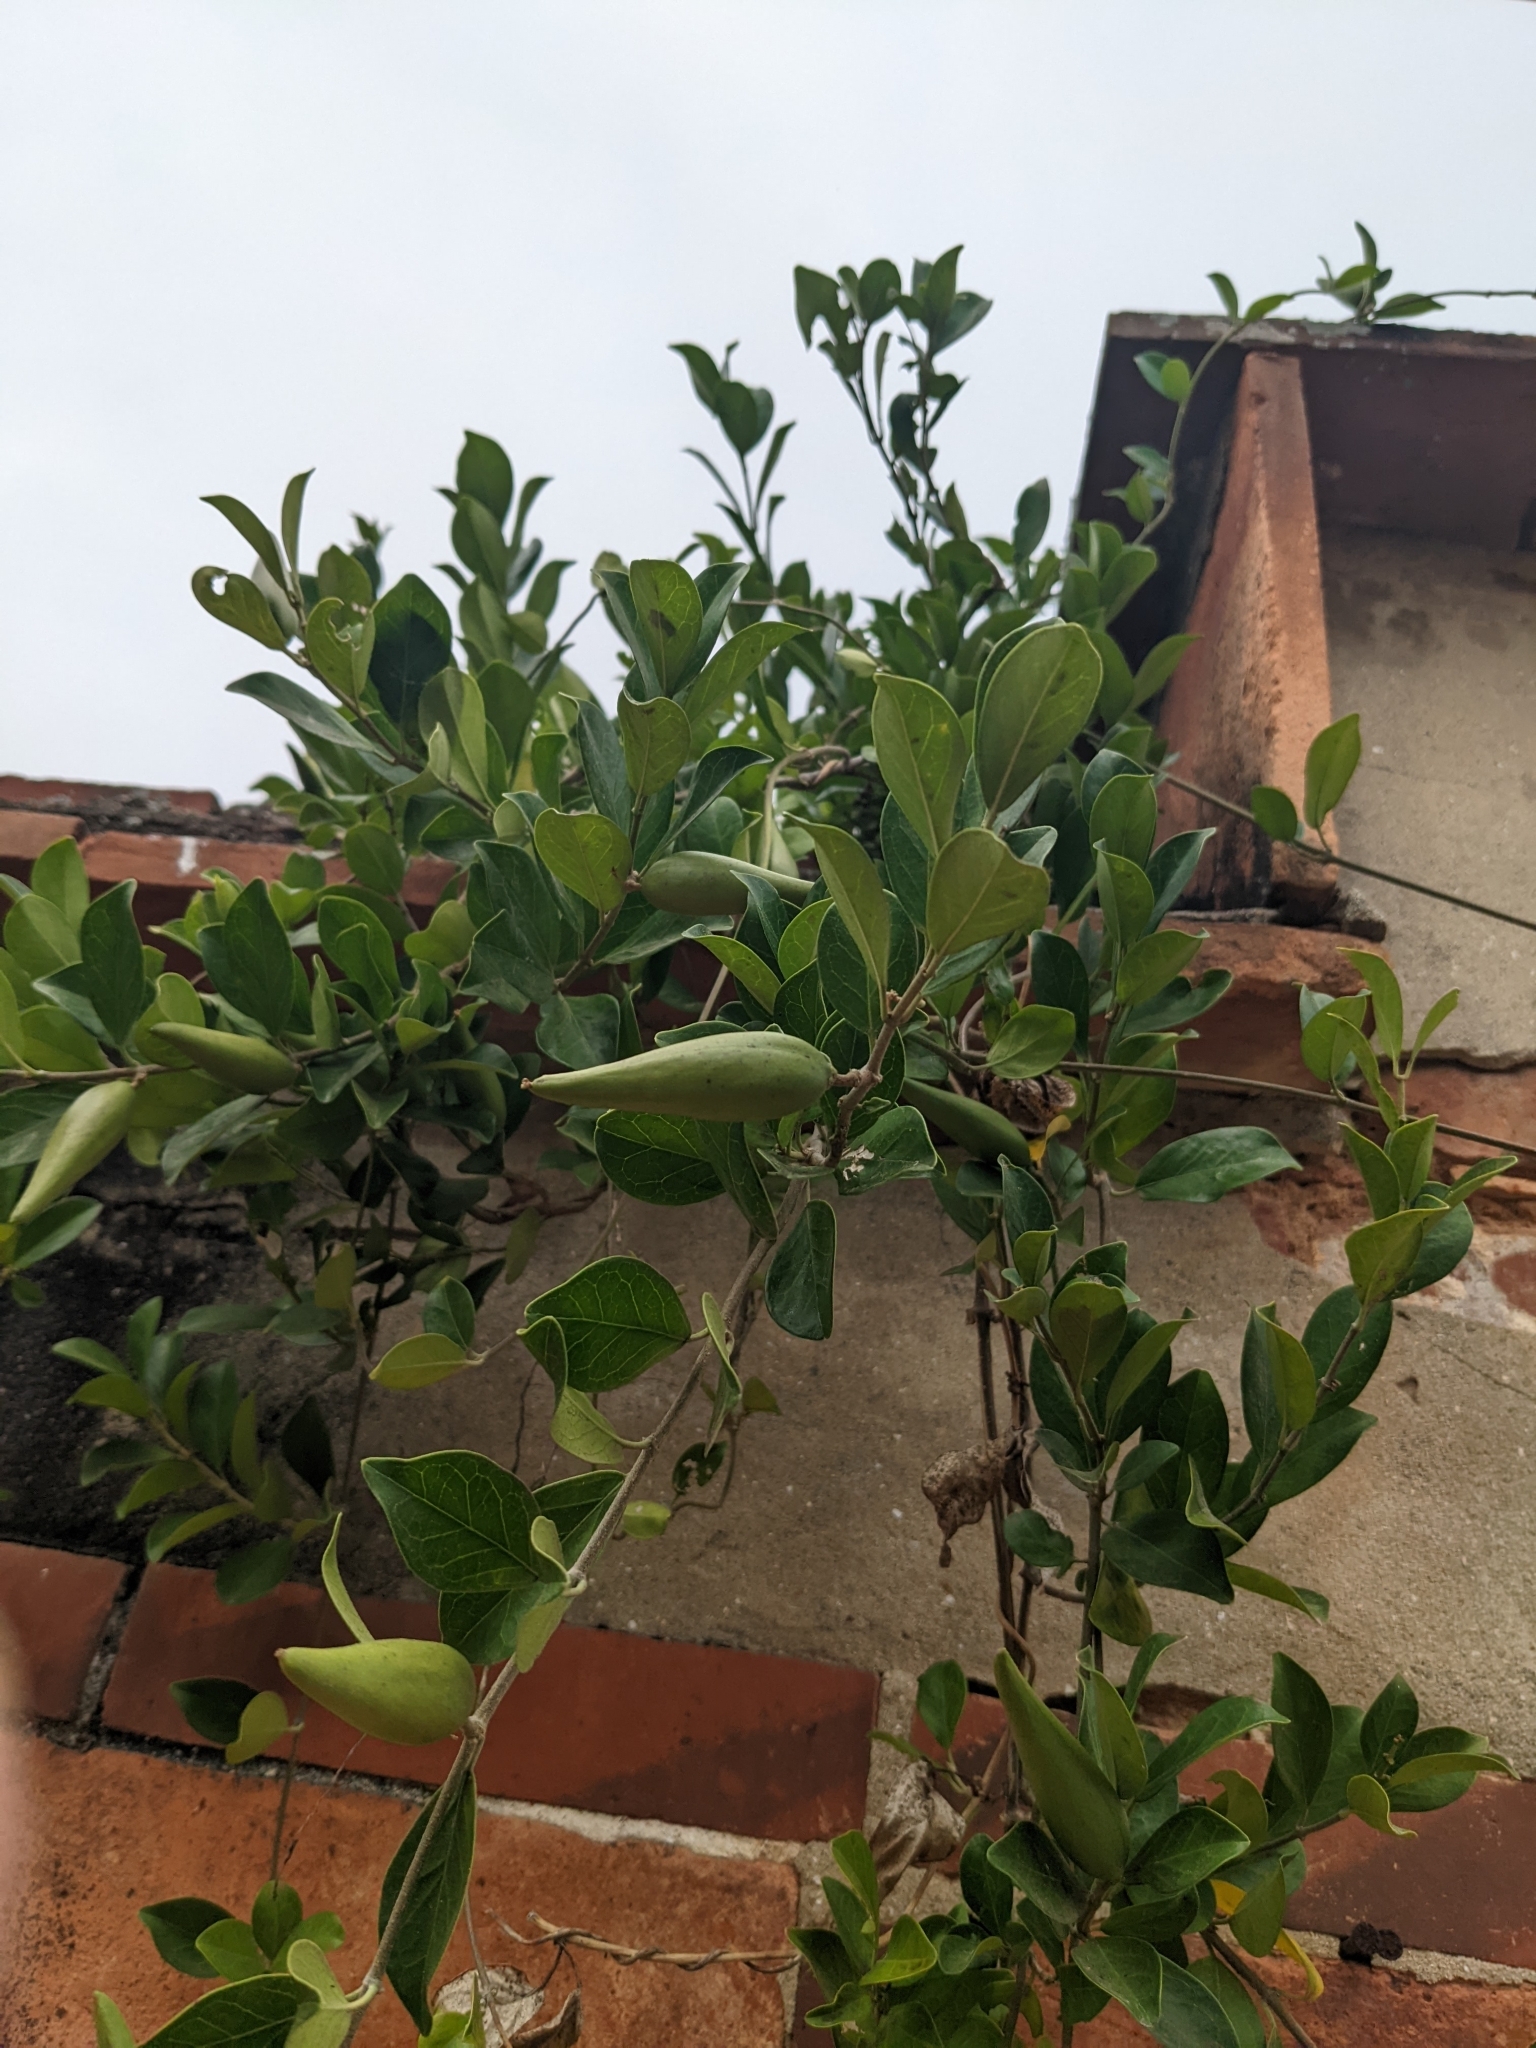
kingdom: Plantae
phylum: Tracheophyta
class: Magnoliopsida
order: Gentianales
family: Apocynaceae
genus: Gymnema
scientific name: Gymnema sylvestre
